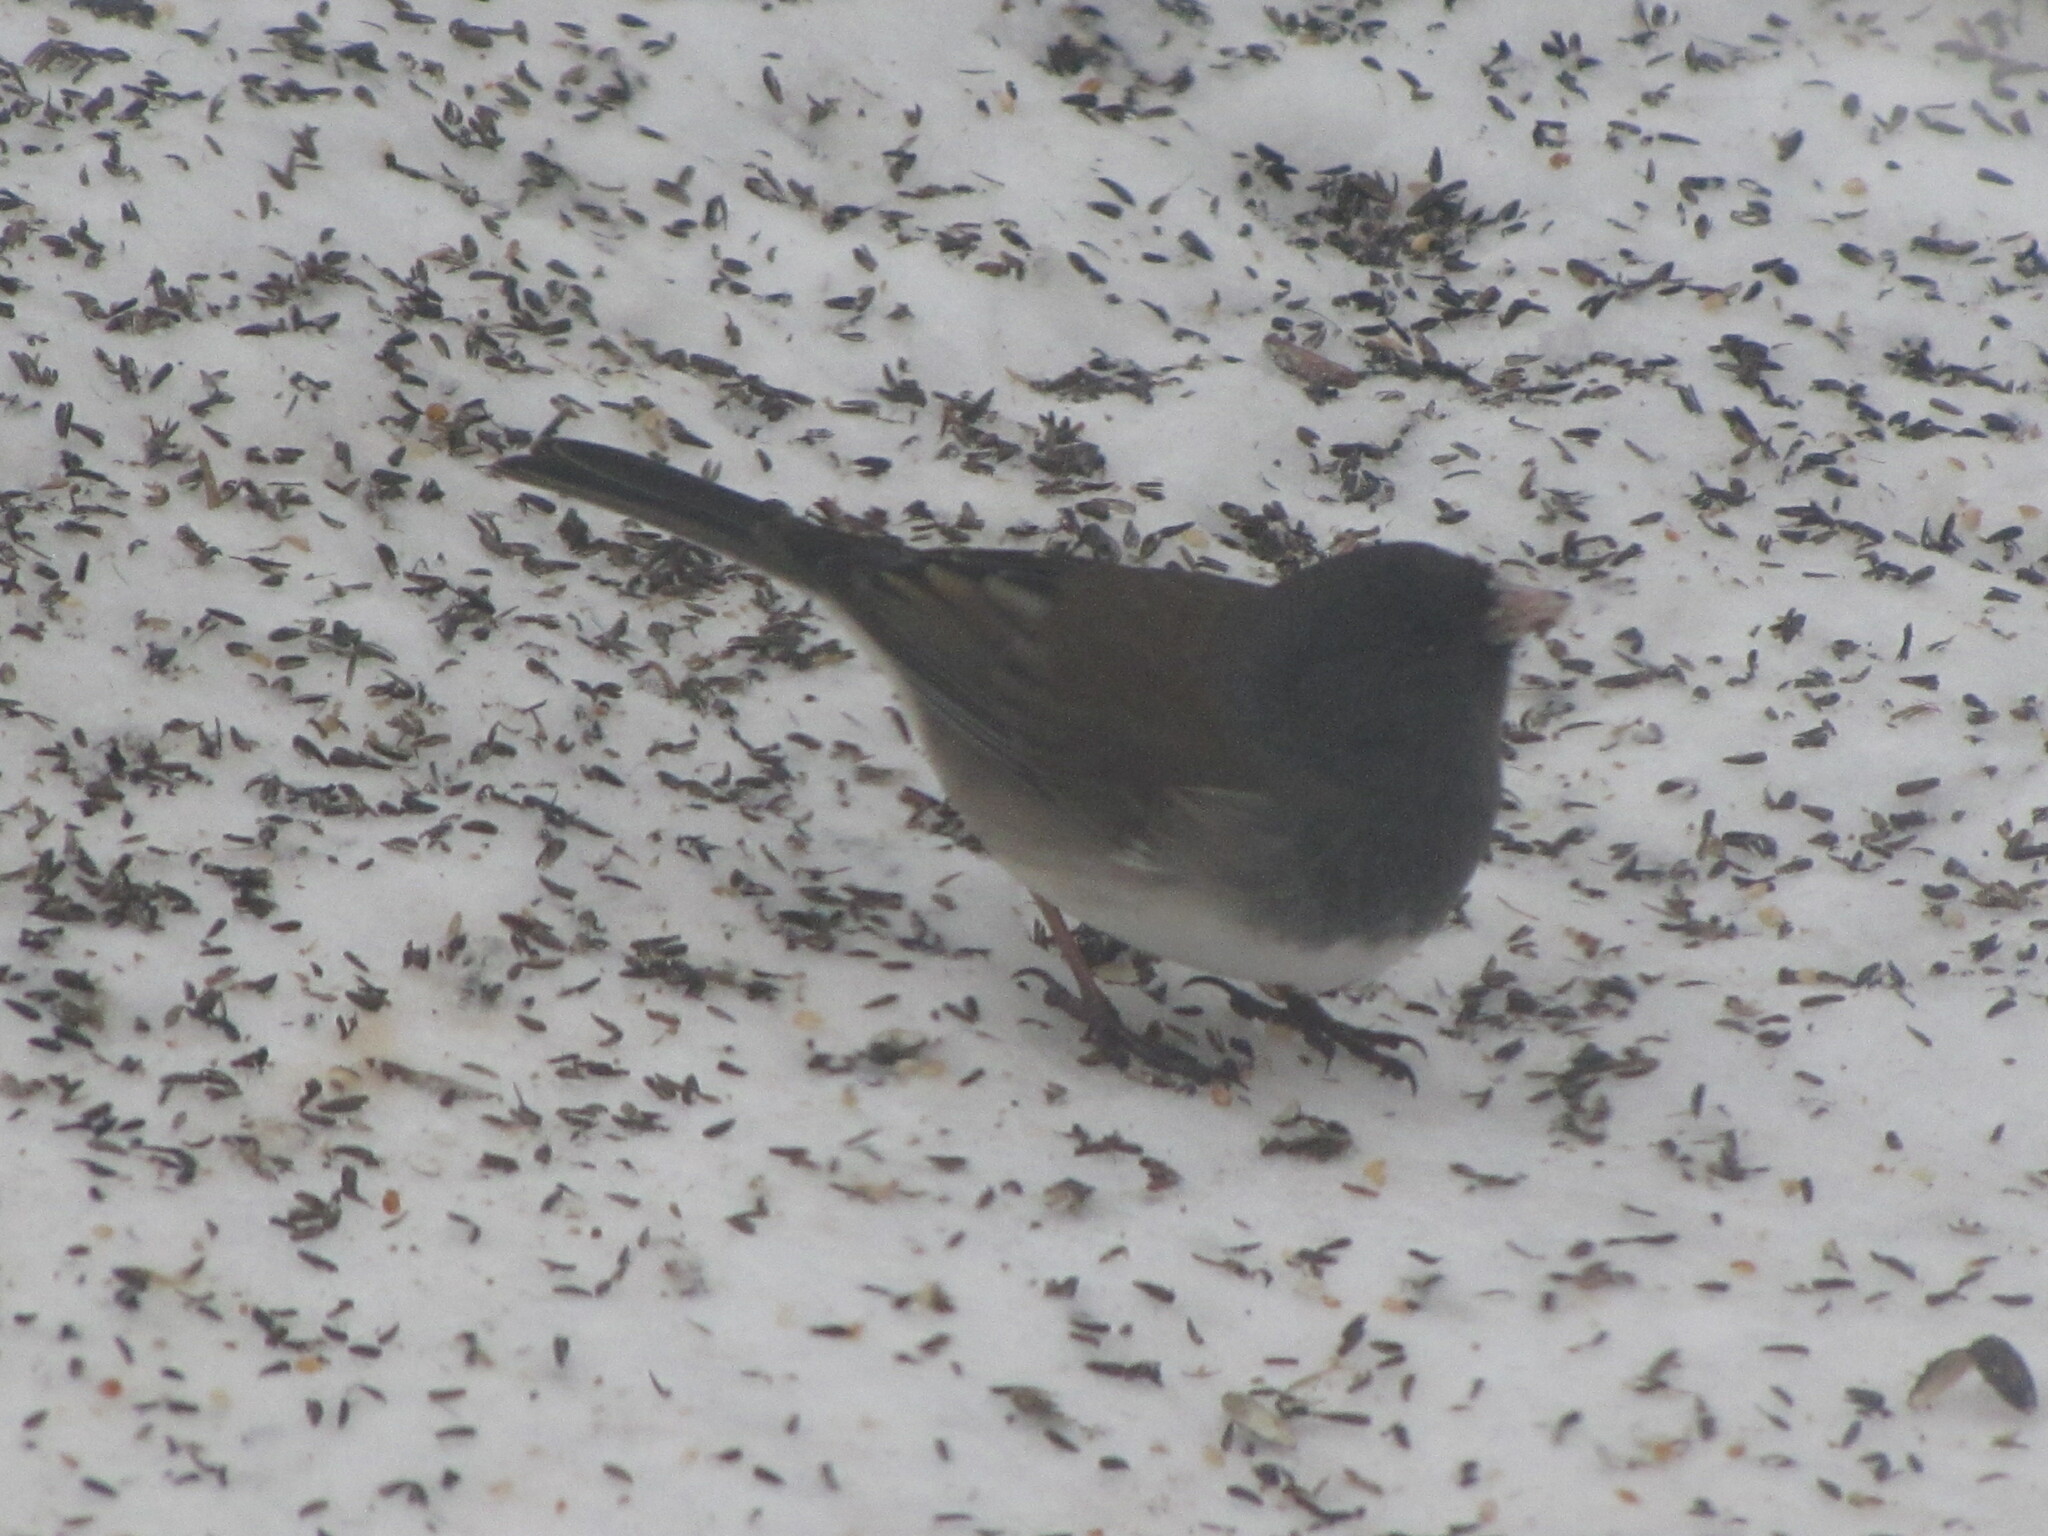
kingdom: Animalia
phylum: Chordata
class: Aves
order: Passeriformes
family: Passerellidae
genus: Junco
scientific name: Junco hyemalis
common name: Dark-eyed junco
